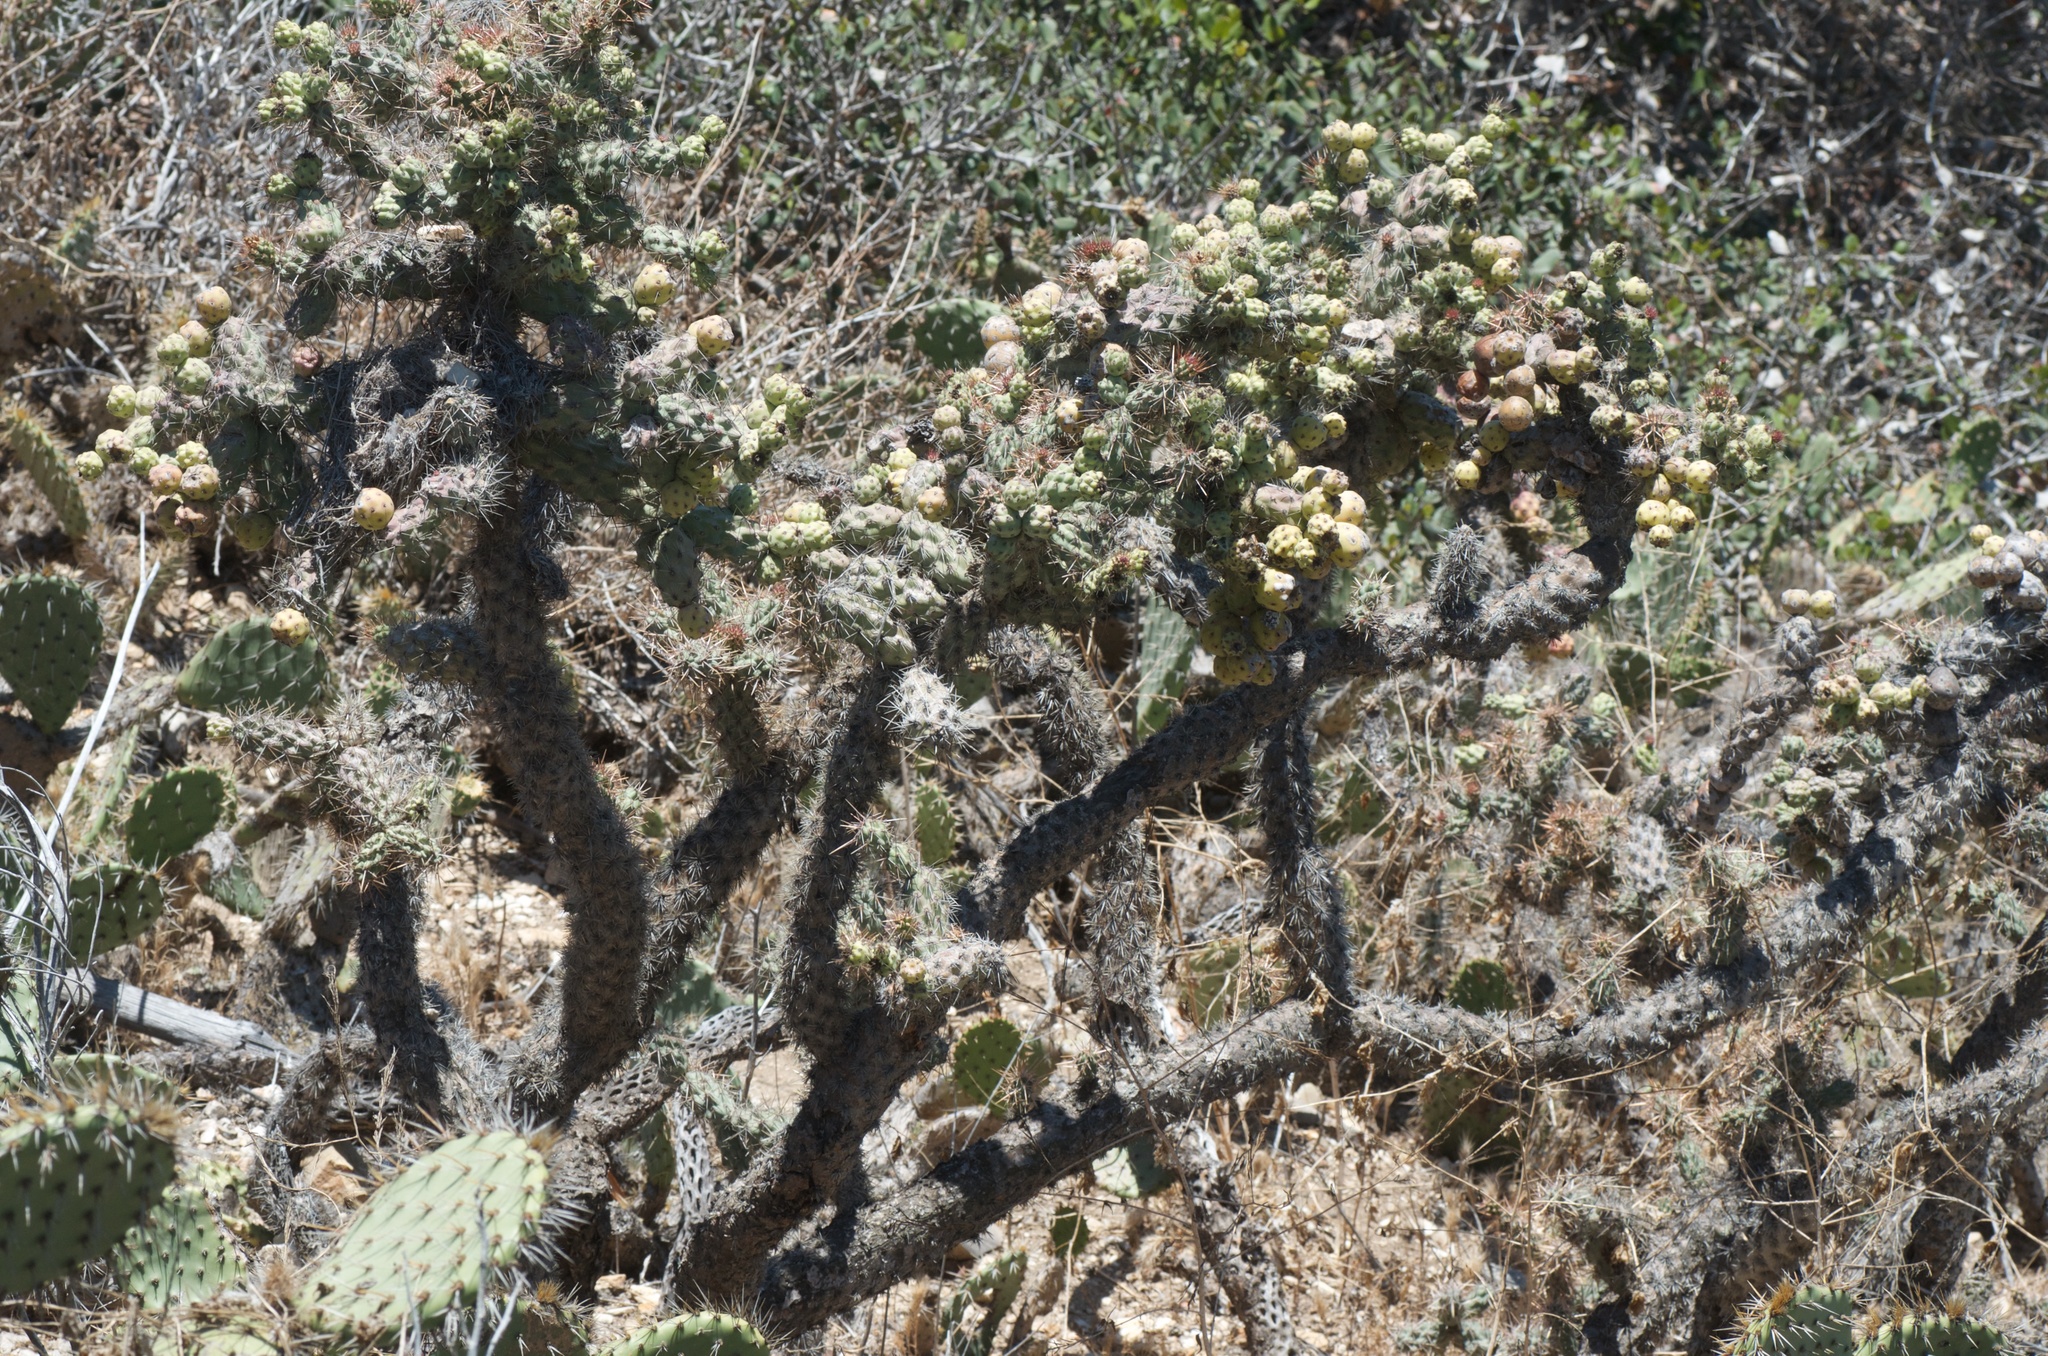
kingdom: Plantae
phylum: Tracheophyta
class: Magnoliopsida
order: Caryophyllales
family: Cactaceae
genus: Cylindropuntia
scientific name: Cylindropuntia prolifera
